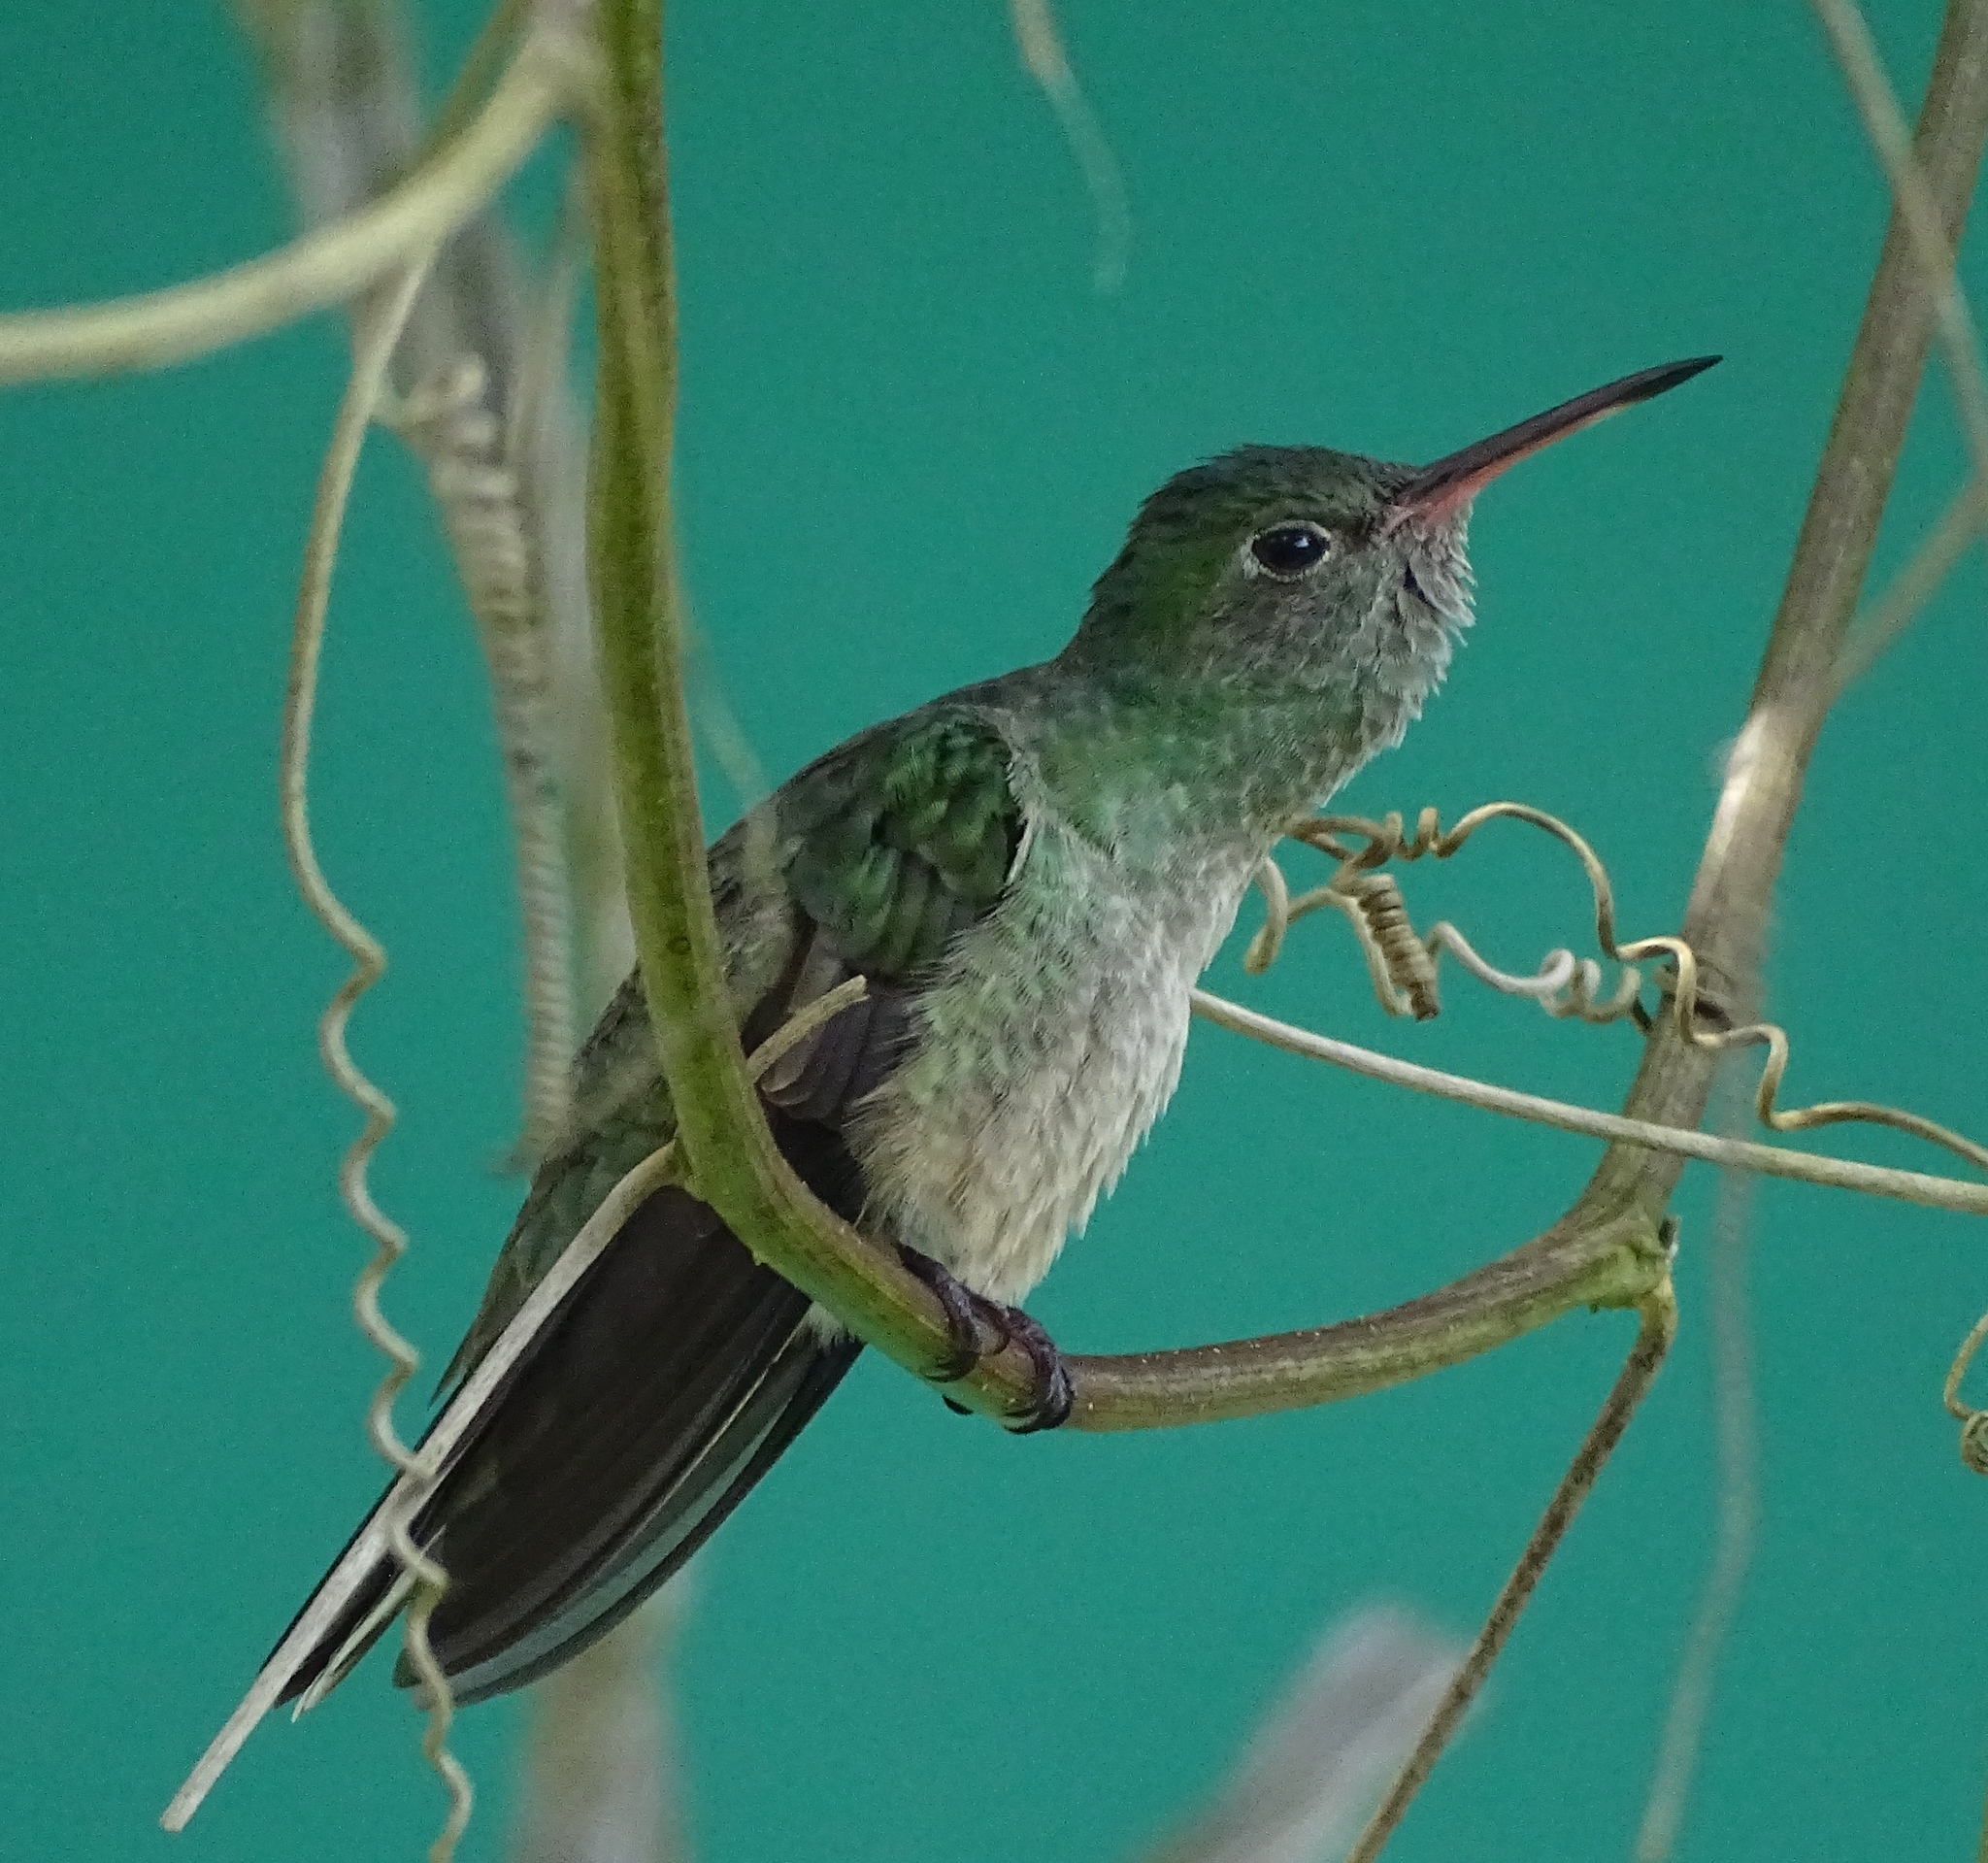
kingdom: Animalia
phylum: Chordata
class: Aves
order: Apodiformes
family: Trochilidae
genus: Phaeochroa
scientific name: Phaeochroa cuvierii
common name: Scaly-breasted hummingbird
